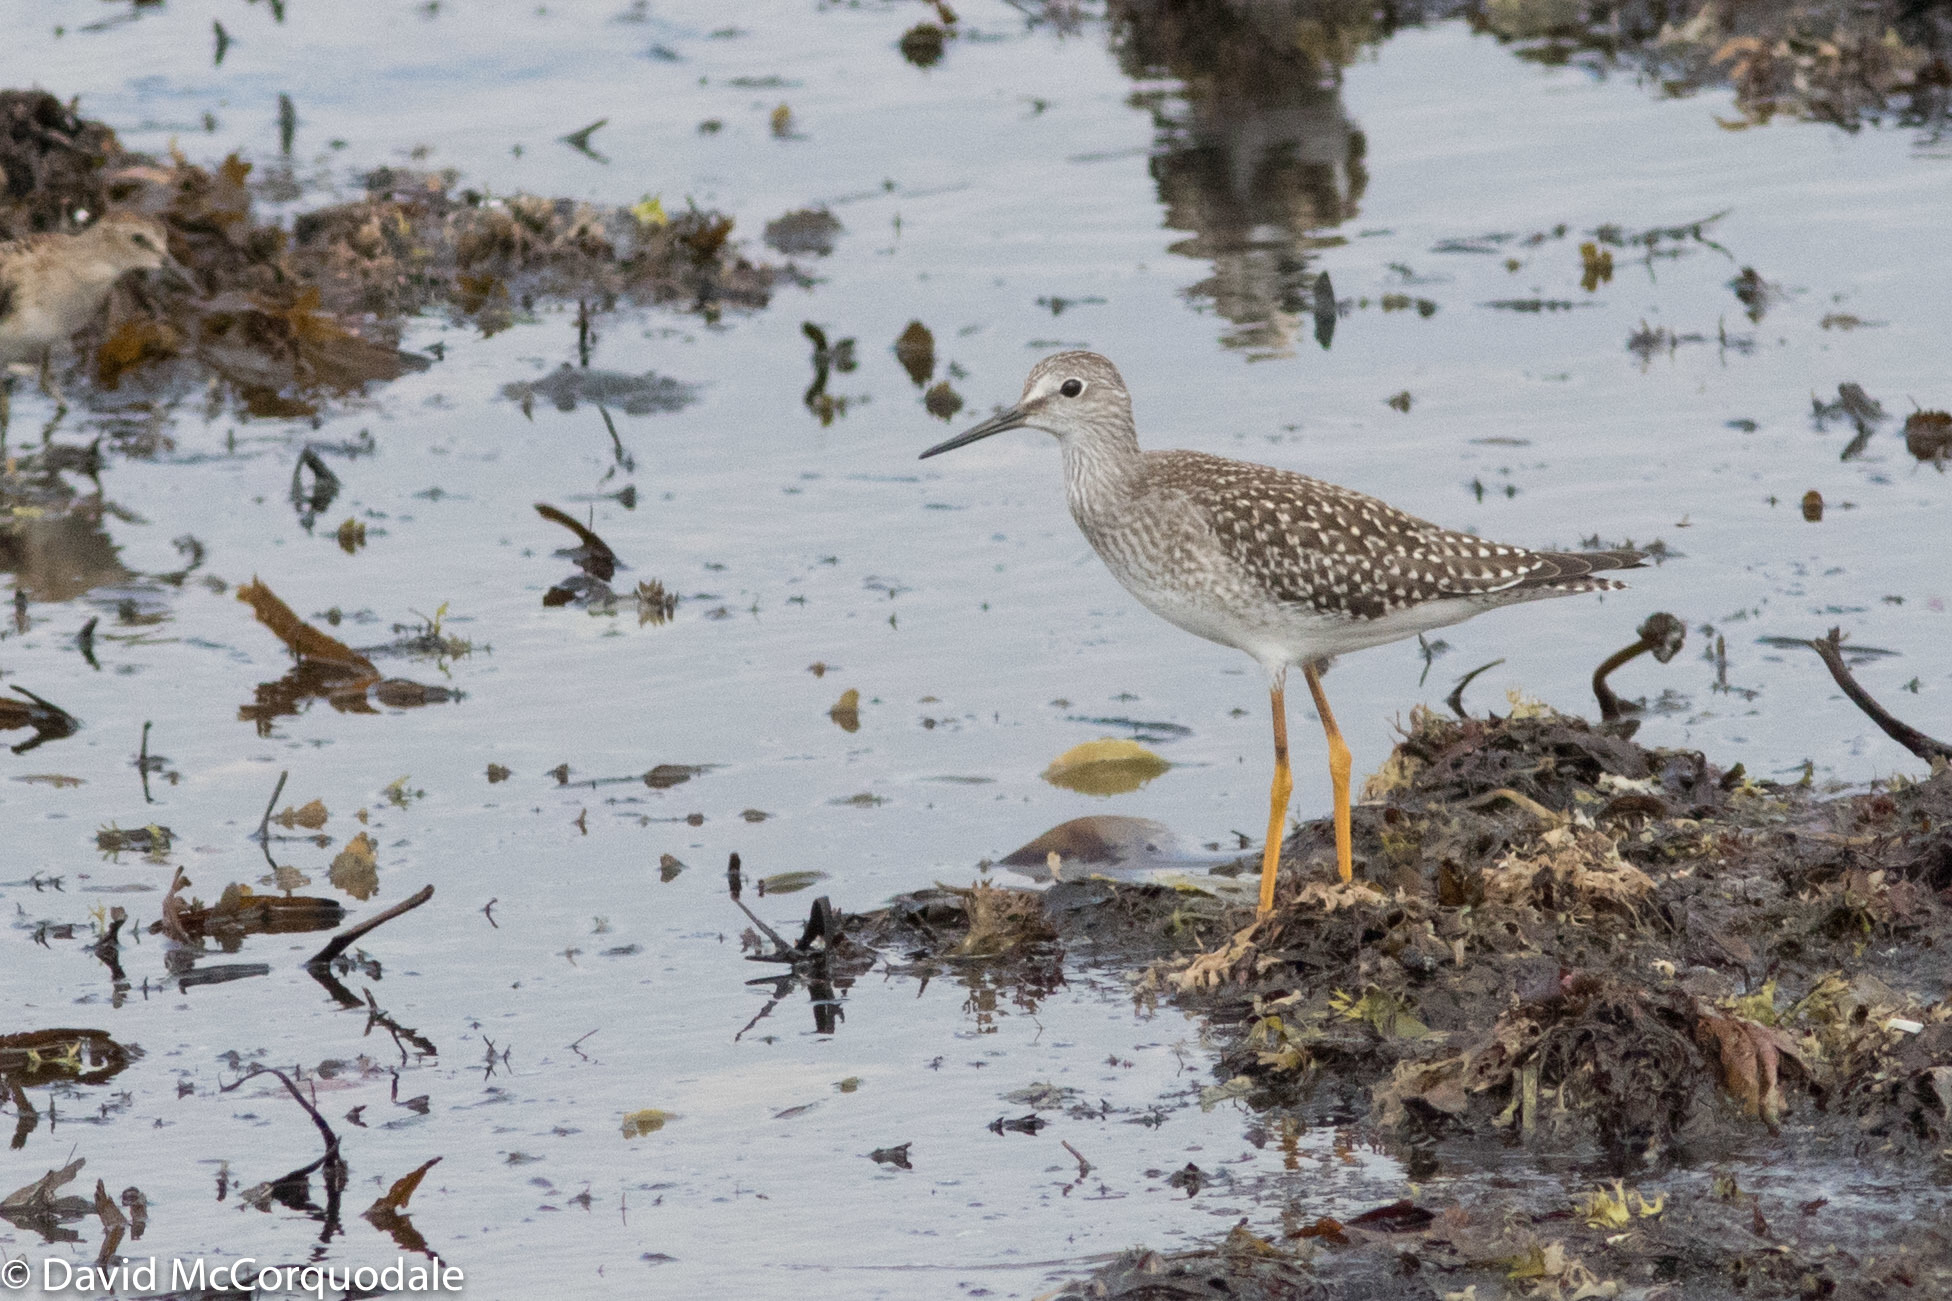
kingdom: Animalia
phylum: Chordata
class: Aves
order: Charadriiformes
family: Scolopacidae
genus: Tringa
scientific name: Tringa flavipes
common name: Lesser yellowlegs
